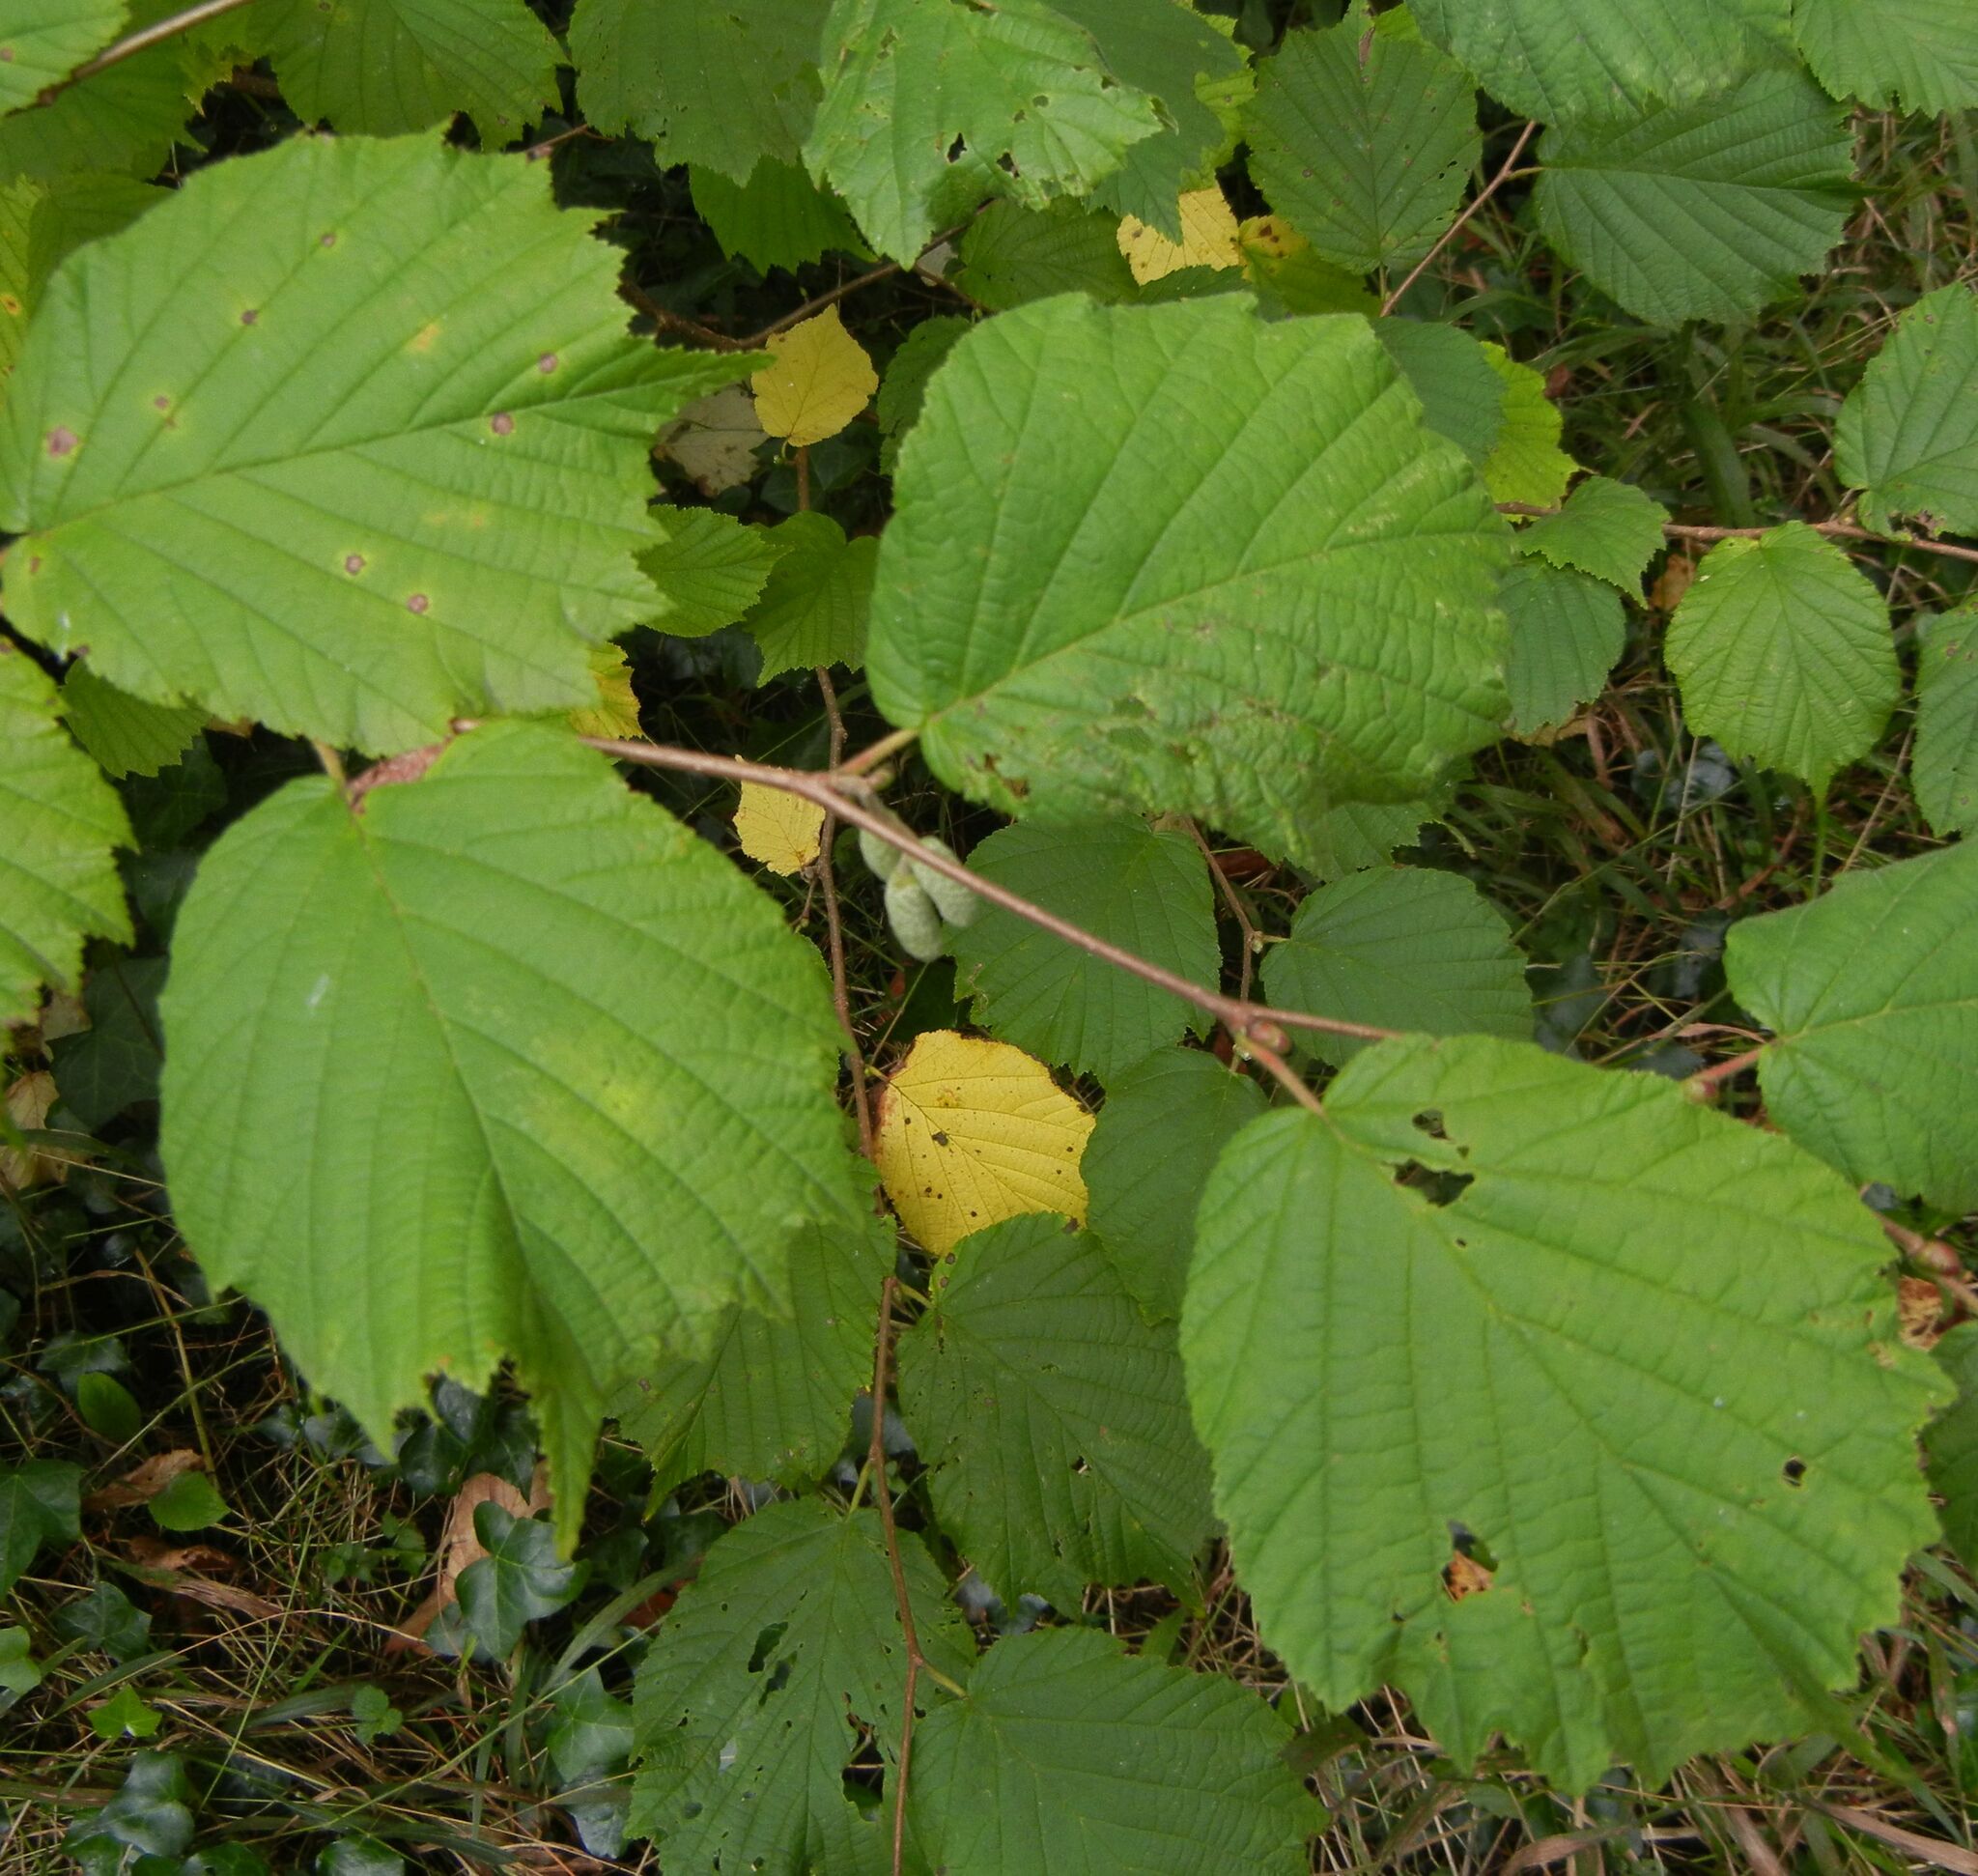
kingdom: Plantae
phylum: Tracheophyta
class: Magnoliopsida
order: Fagales
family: Betulaceae
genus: Corylus
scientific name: Corylus avellana
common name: European hazel
